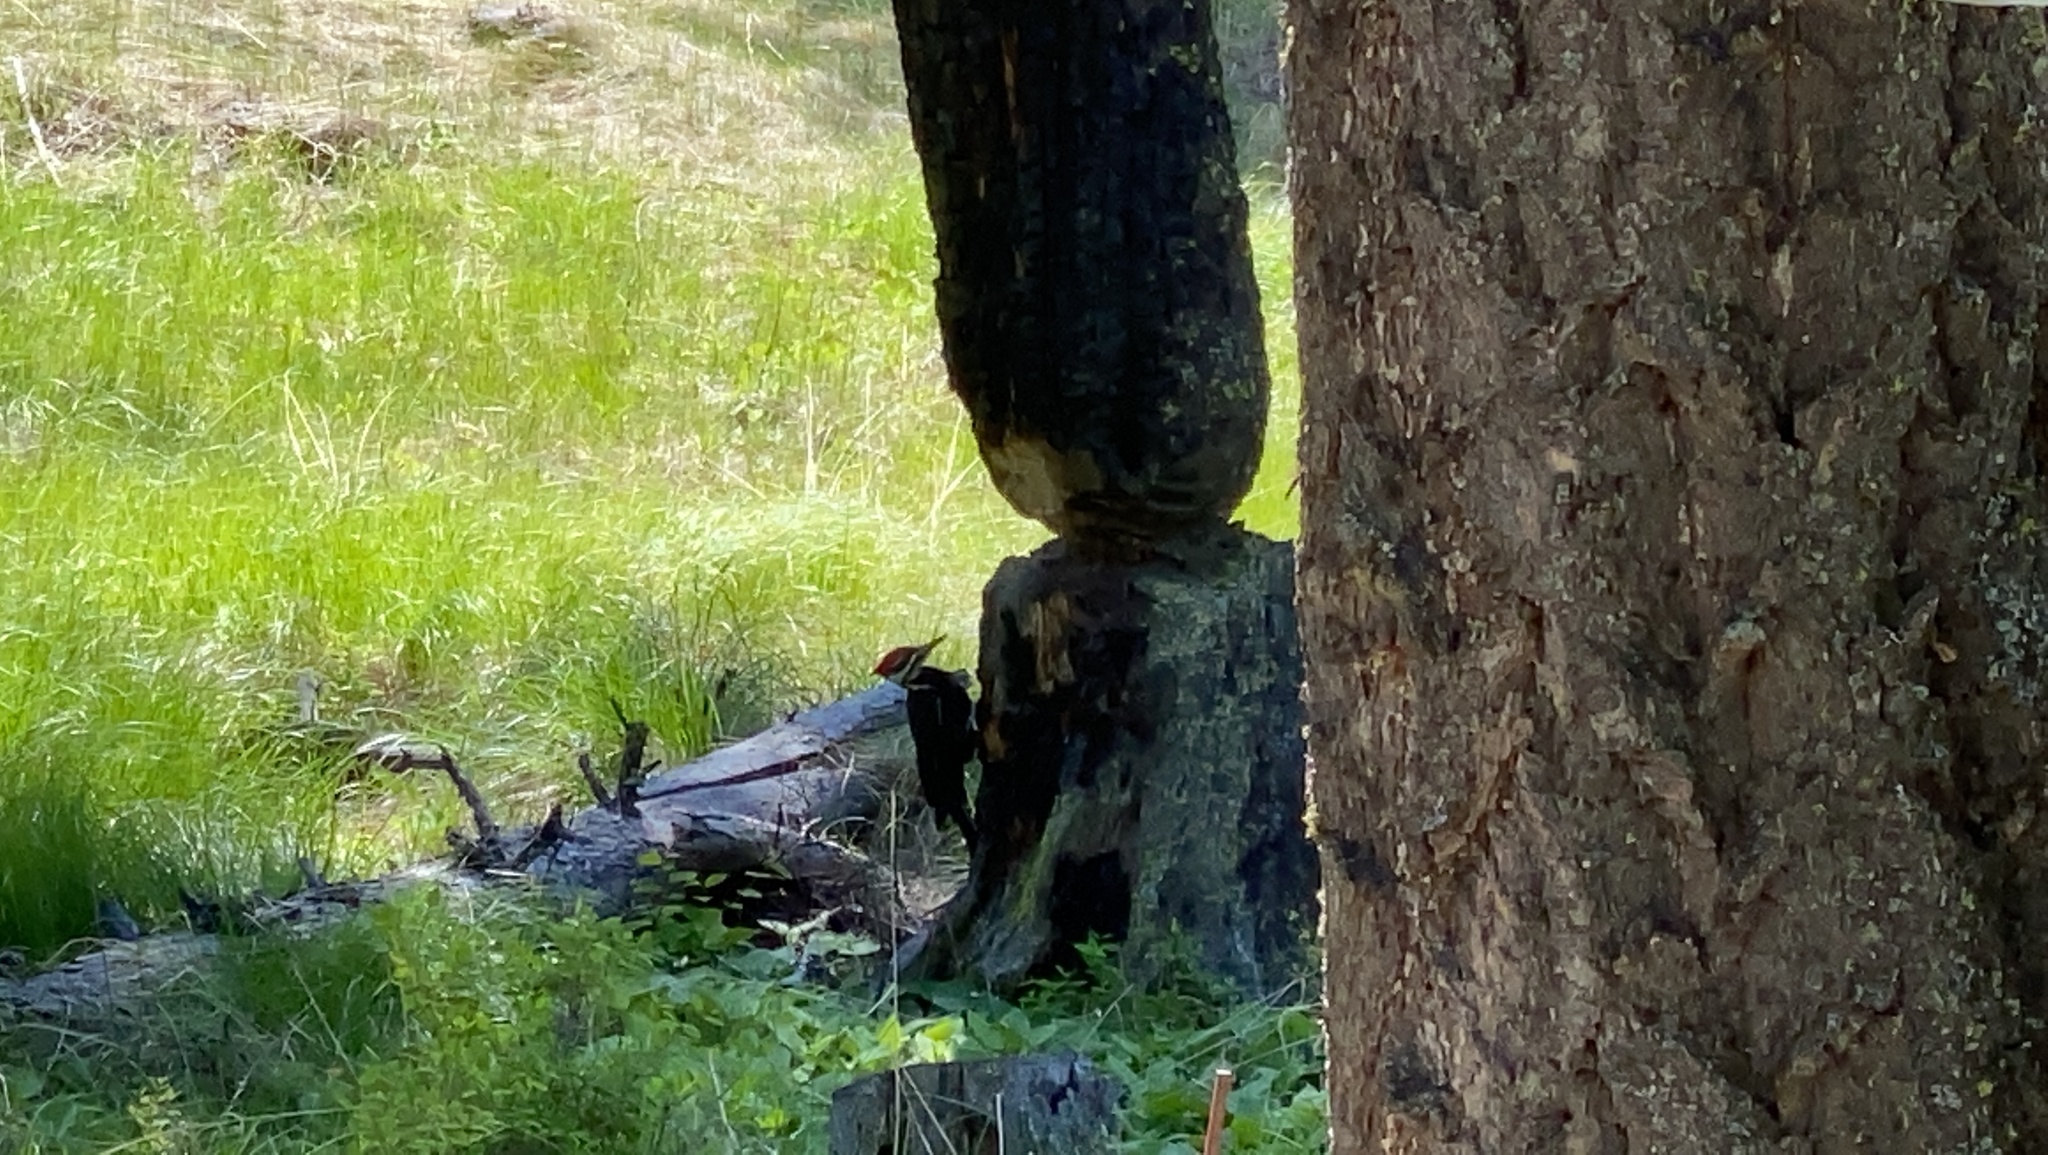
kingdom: Animalia
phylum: Chordata
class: Aves
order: Piciformes
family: Picidae
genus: Dryocopus
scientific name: Dryocopus pileatus
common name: Pileated woodpecker
